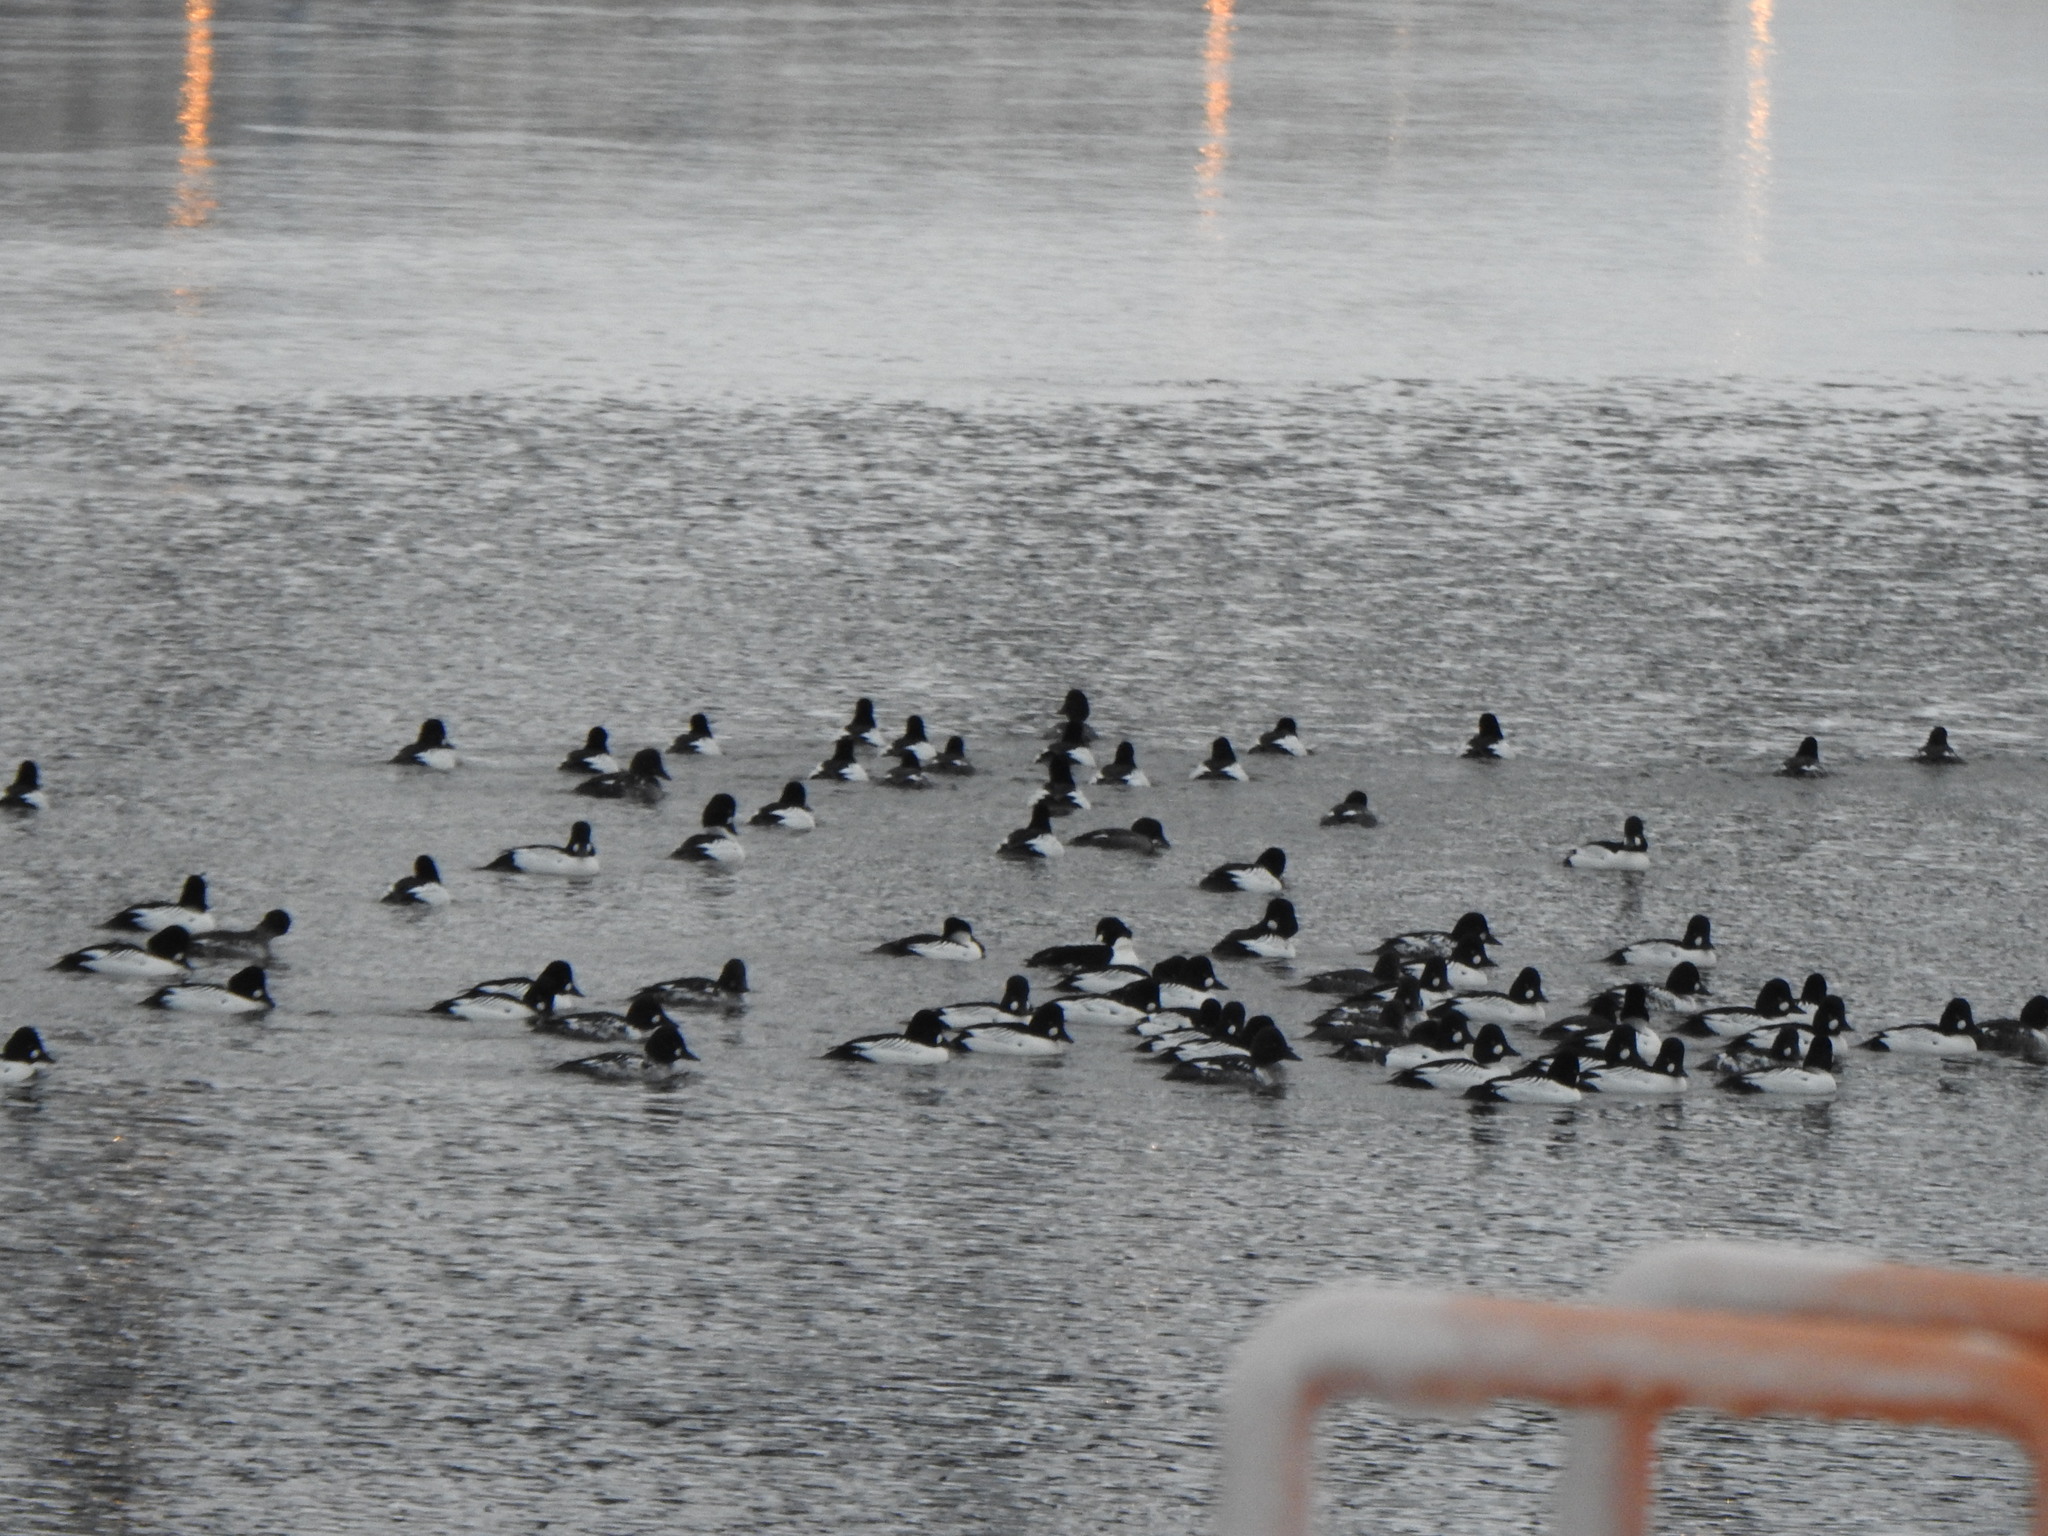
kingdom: Animalia
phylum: Chordata
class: Aves
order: Anseriformes
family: Anatidae
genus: Bucephala
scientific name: Bucephala clangula
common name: Common goldeneye
